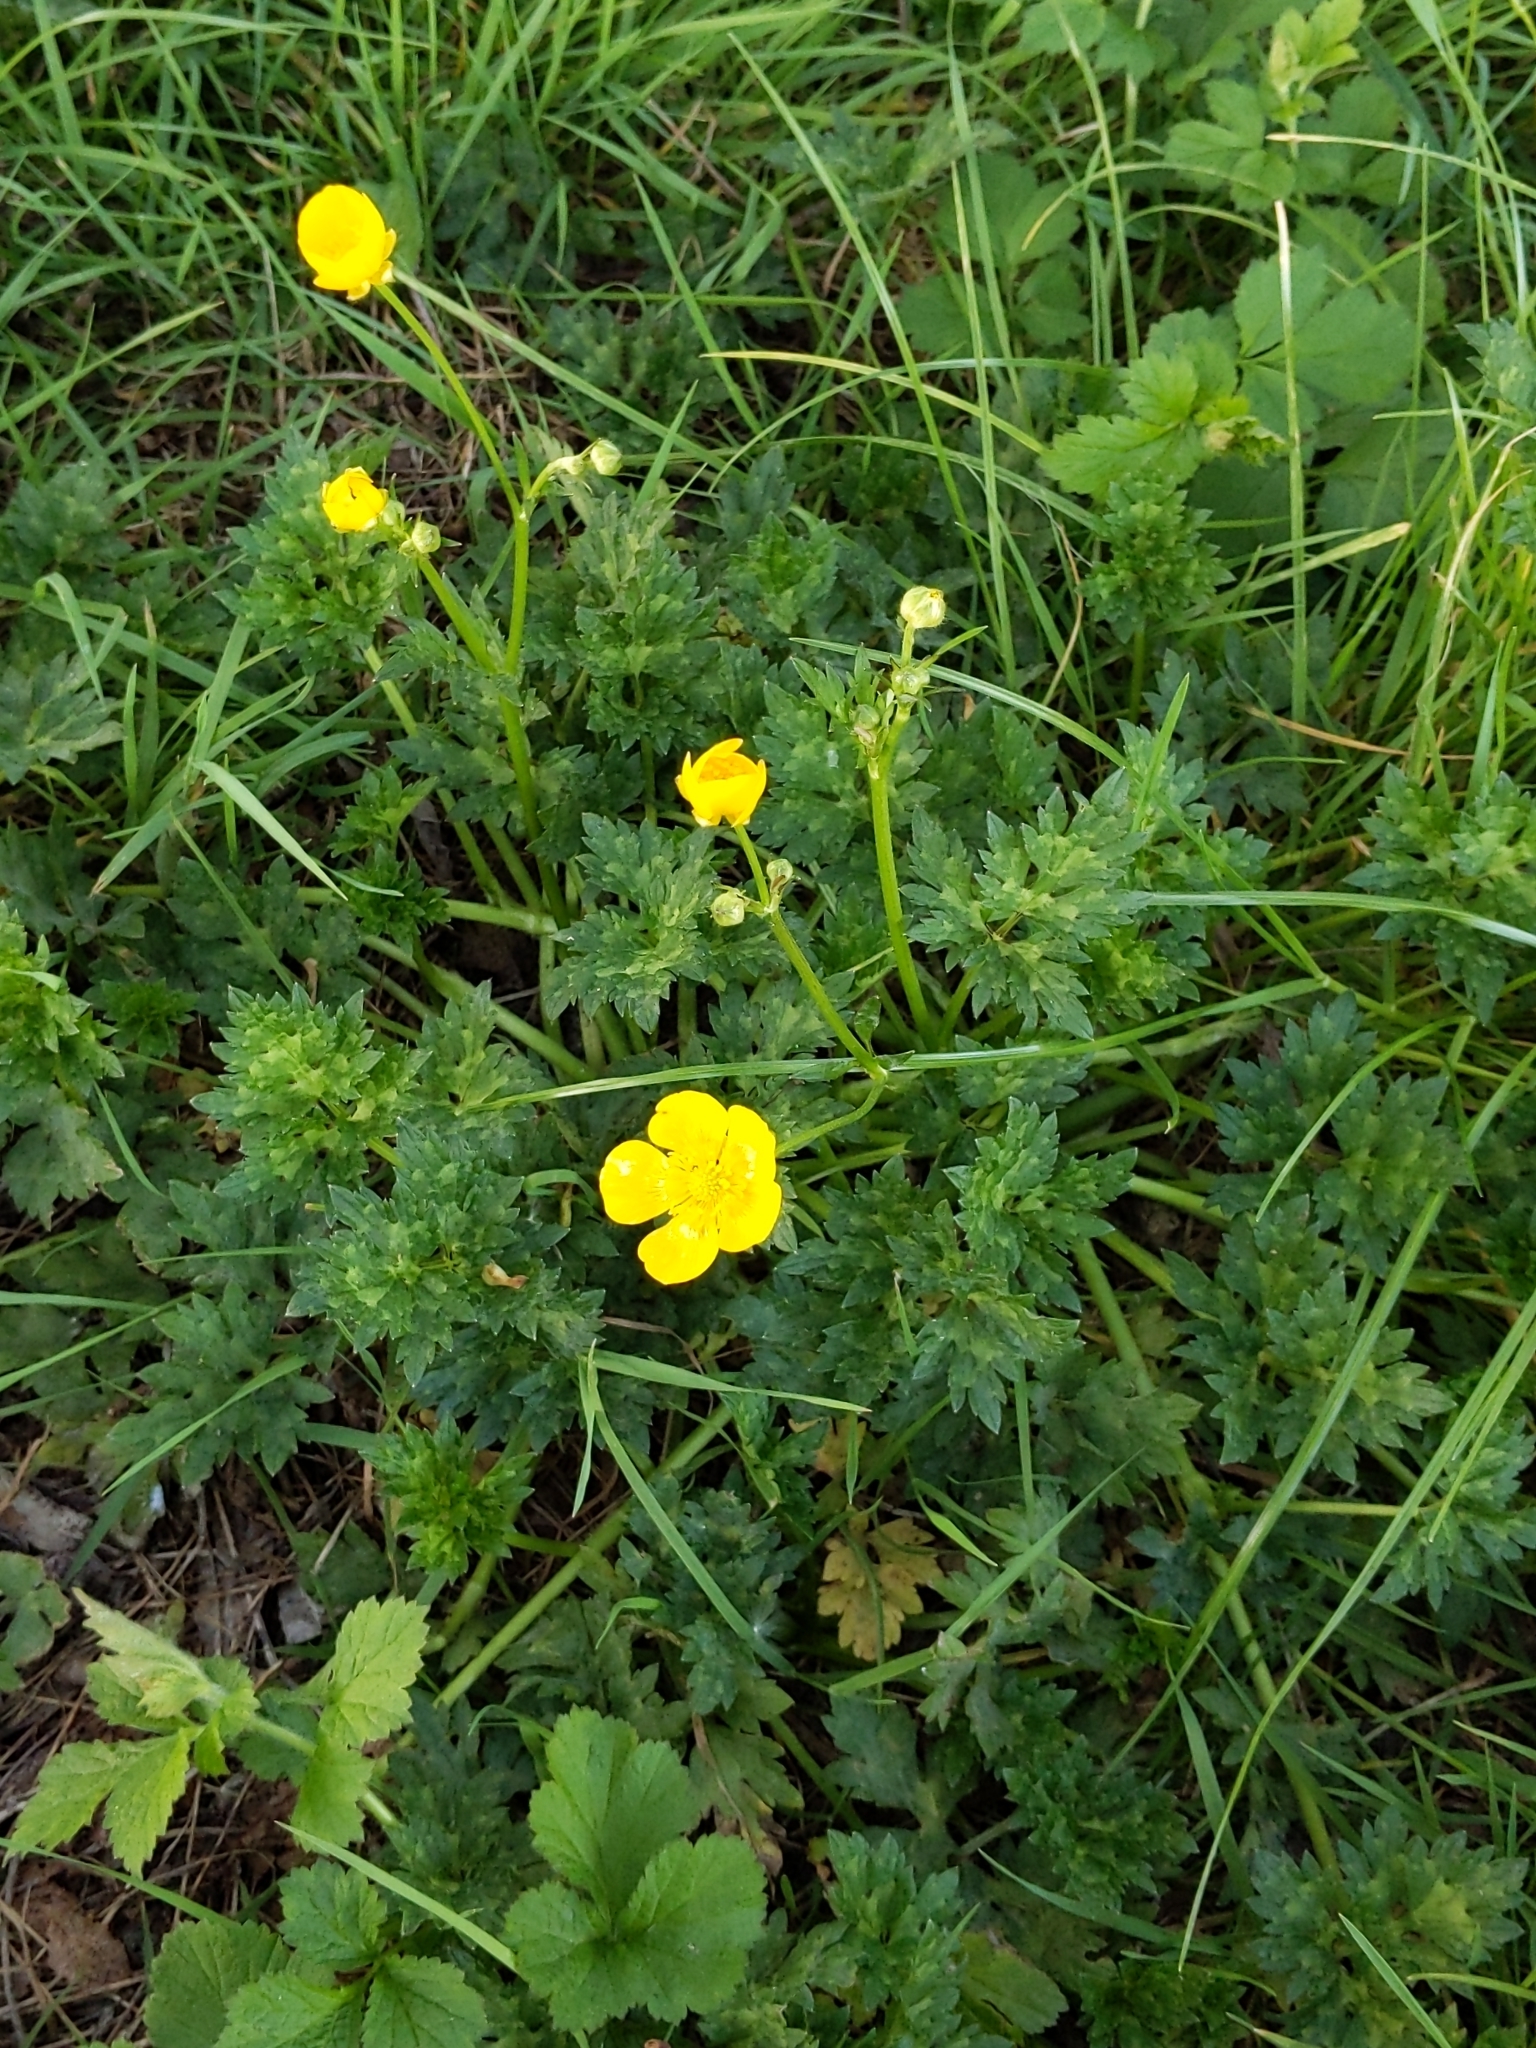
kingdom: Plantae
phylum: Tracheophyta
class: Magnoliopsida
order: Ranunculales
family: Ranunculaceae
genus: Ranunculus
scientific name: Ranunculus repens
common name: Creeping buttercup
